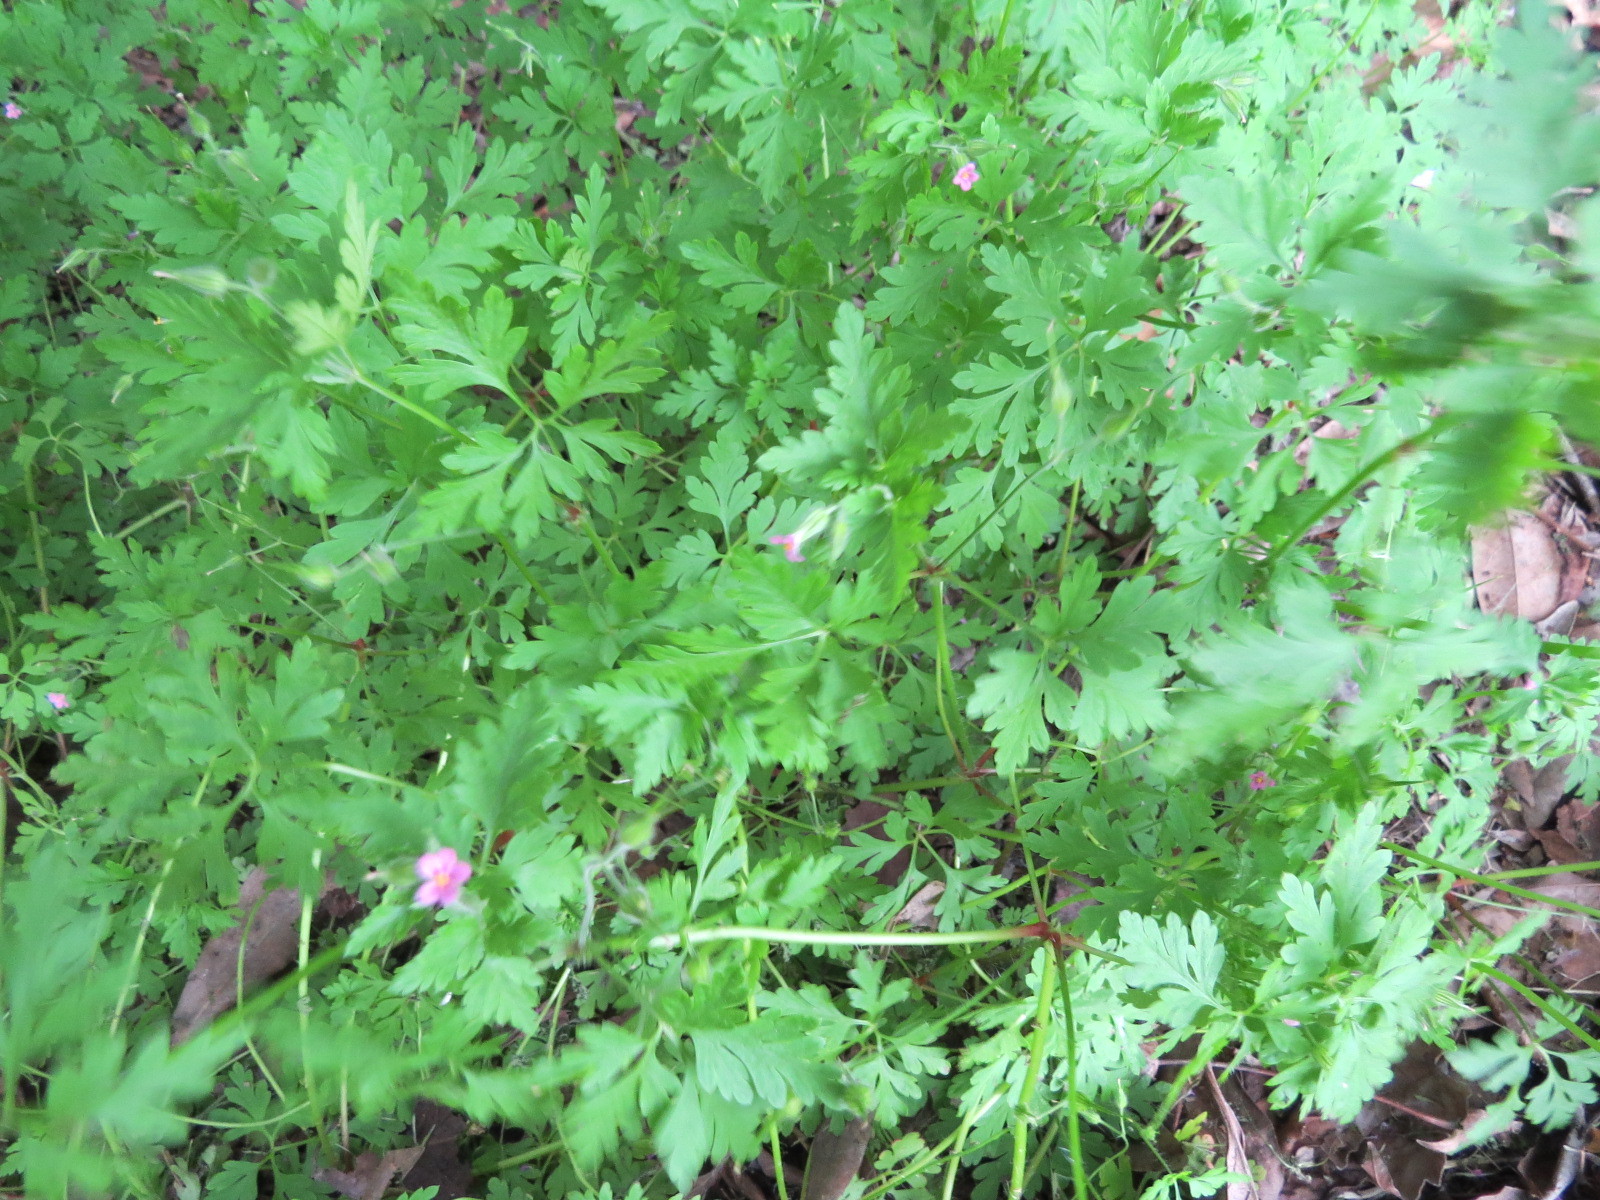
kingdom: Plantae
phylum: Tracheophyta
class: Magnoliopsida
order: Geraniales
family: Geraniaceae
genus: Geranium
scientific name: Geranium purpureum
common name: Little-robin
